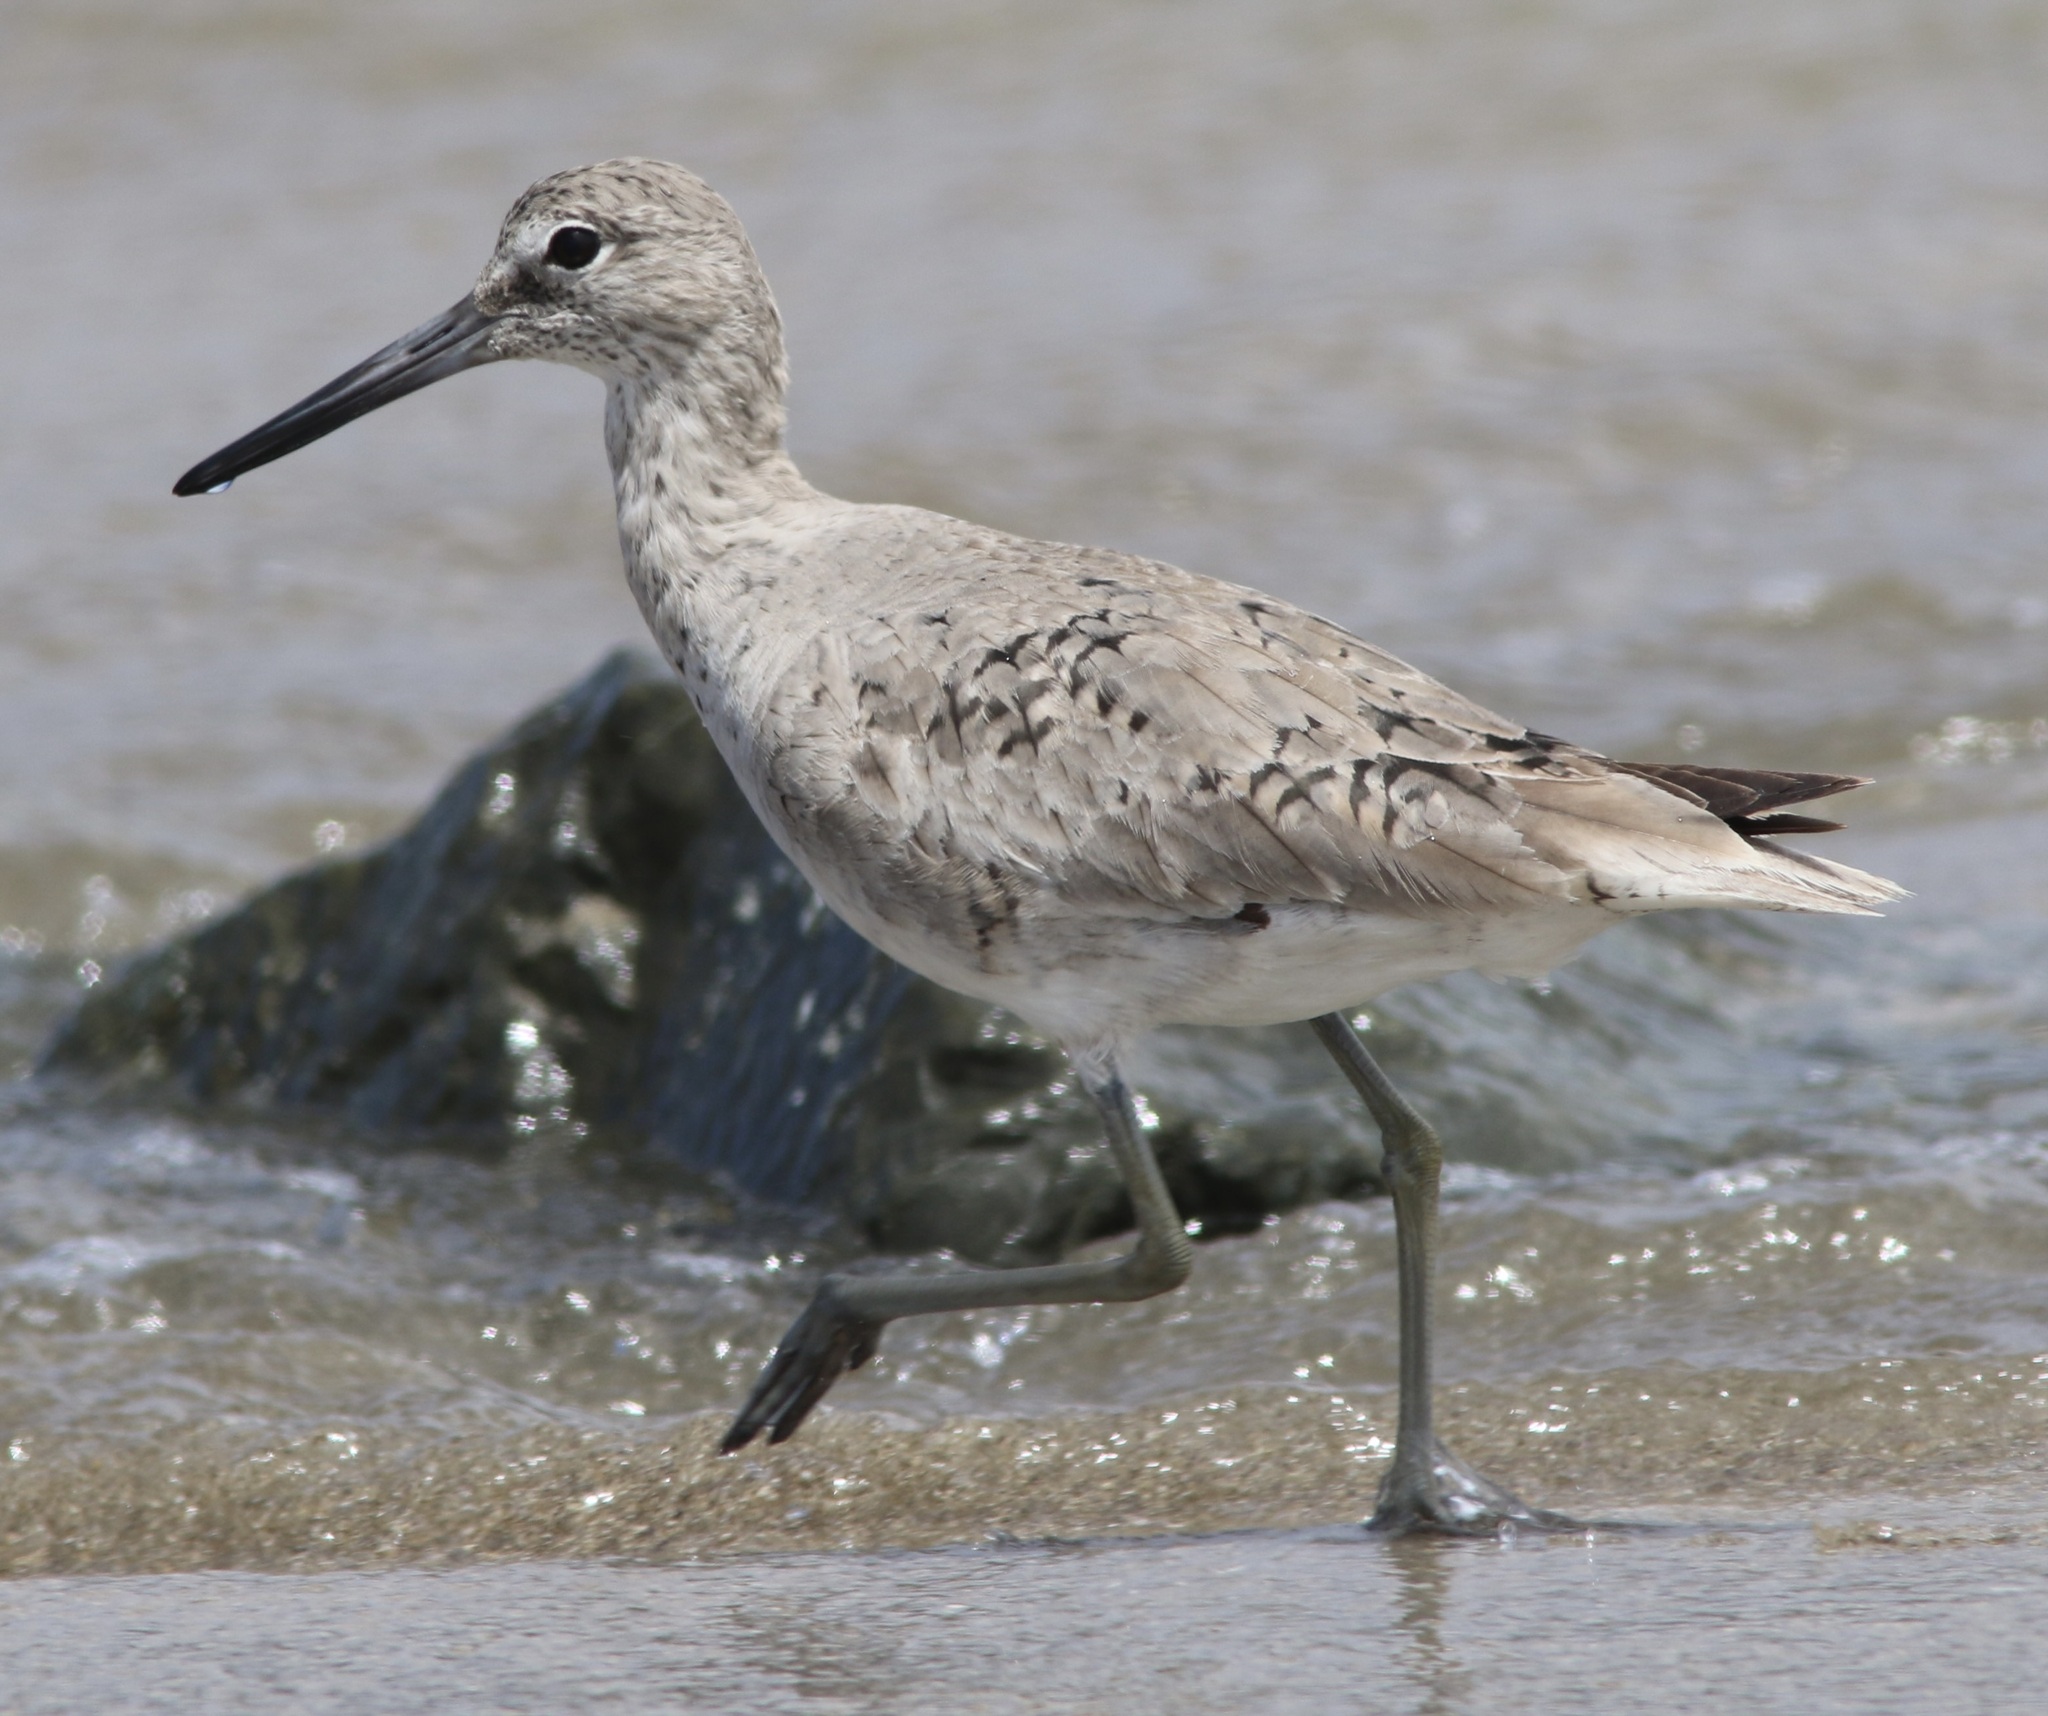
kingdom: Animalia
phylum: Chordata
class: Aves
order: Charadriiformes
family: Scolopacidae
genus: Tringa
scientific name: Tringa semipalmata
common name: Willet
